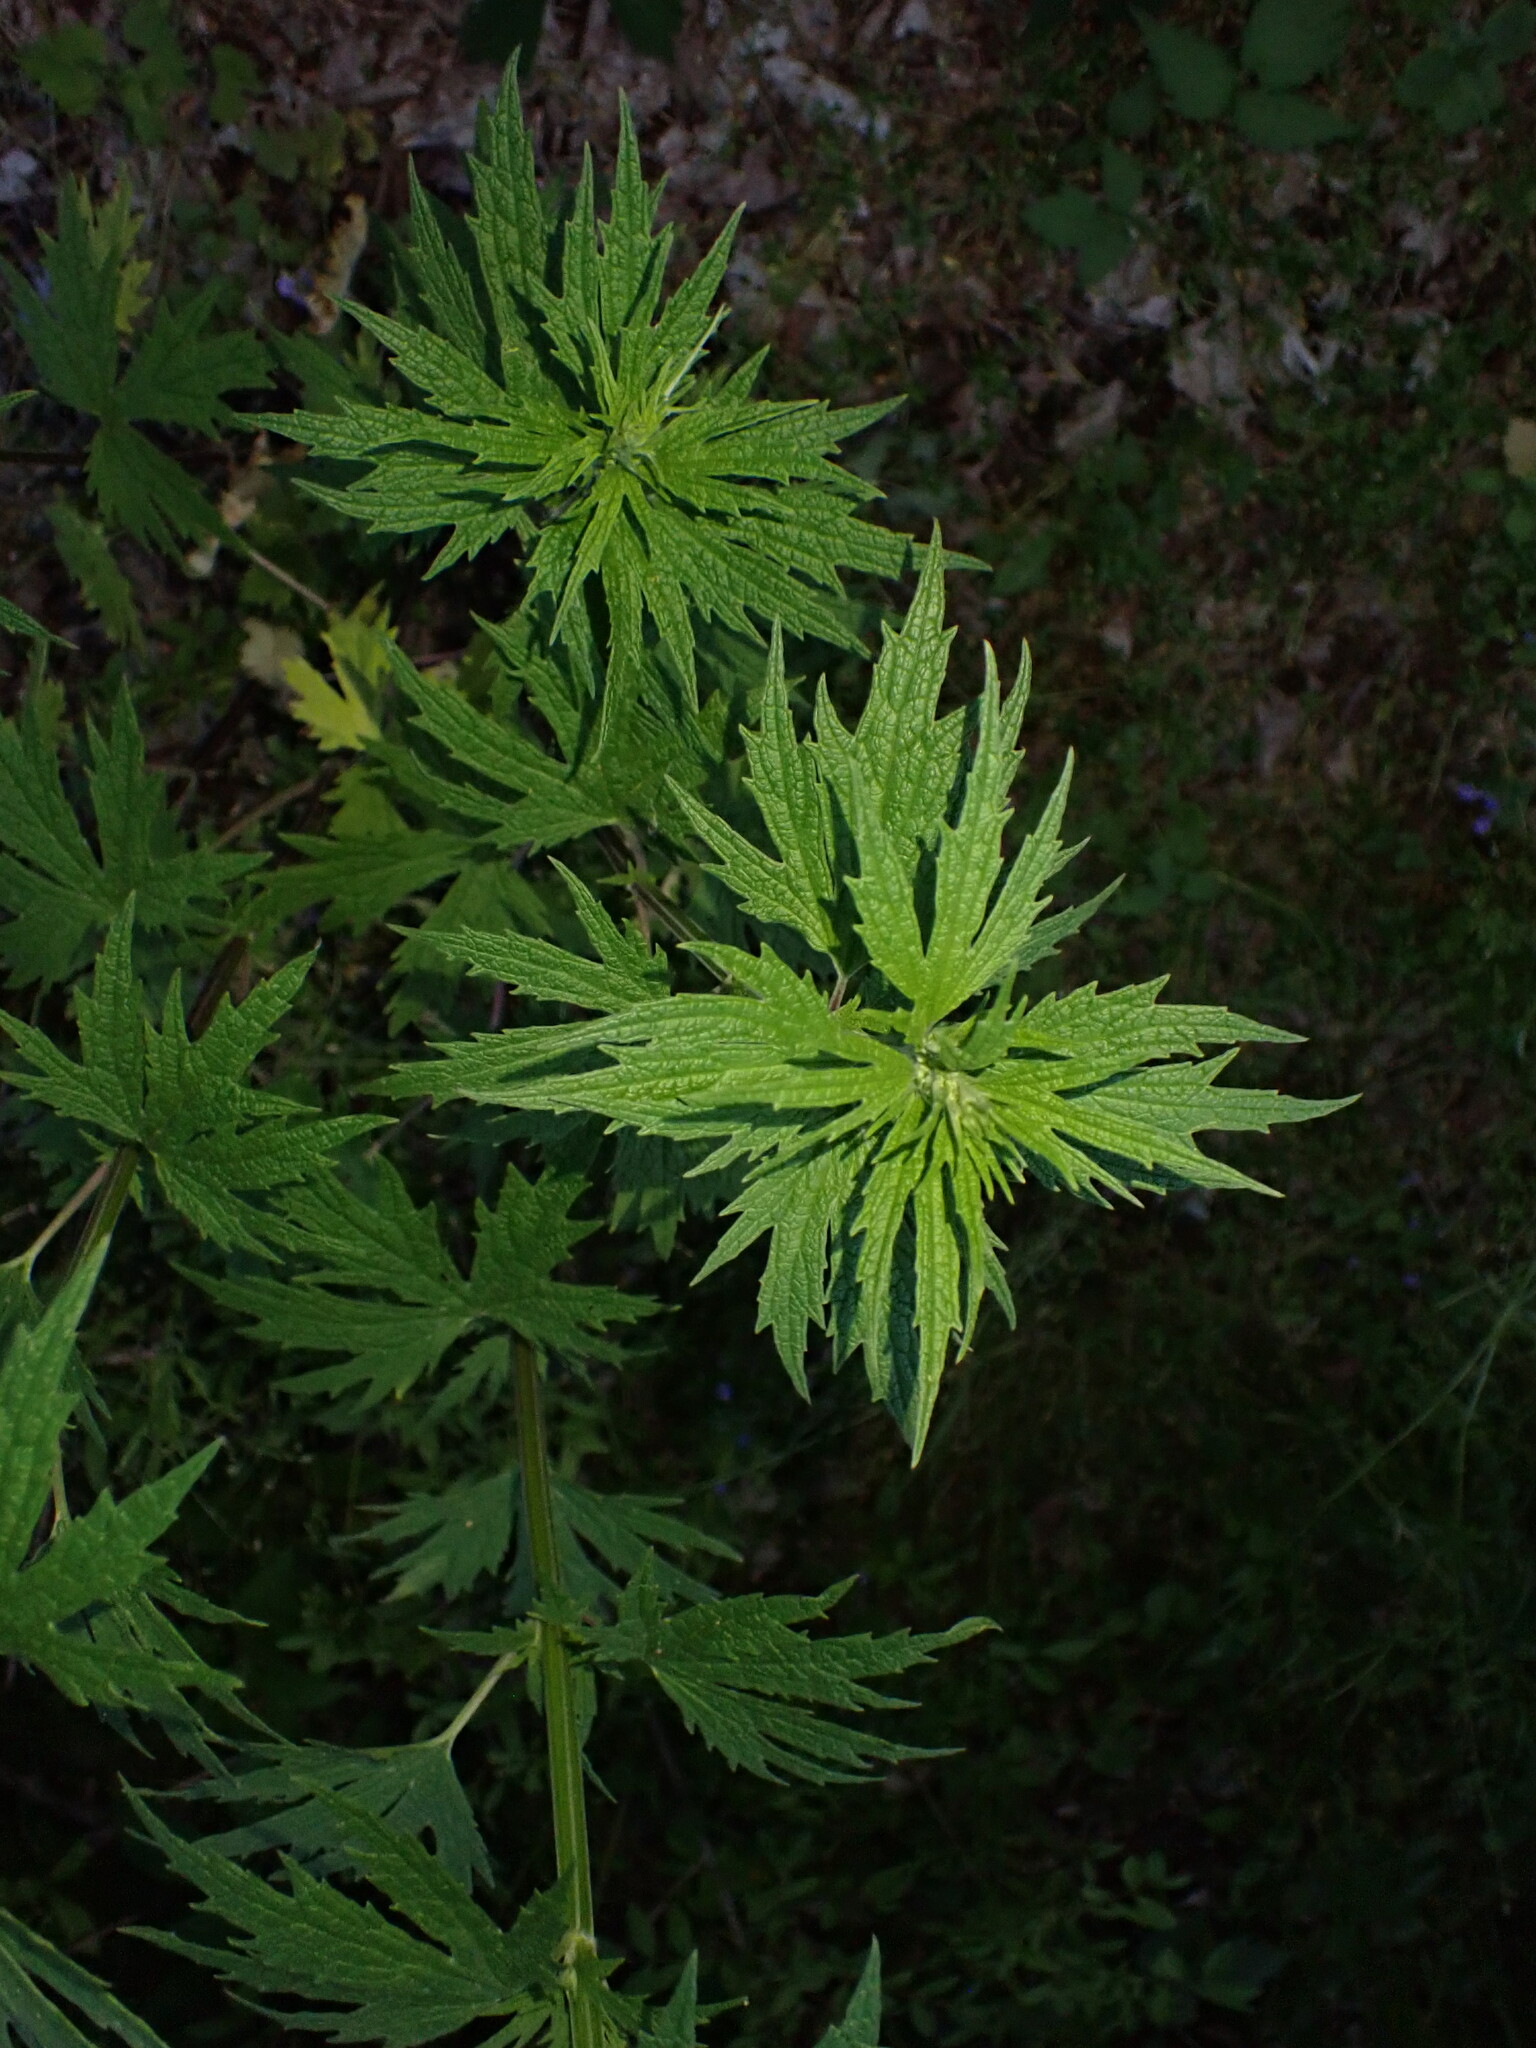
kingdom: Plantae
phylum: Tracheophyta
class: Magnoliopsida
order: Lamiales
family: Lamiaceae
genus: Leonurus
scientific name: Leonurus cardiaca
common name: Motherwort
